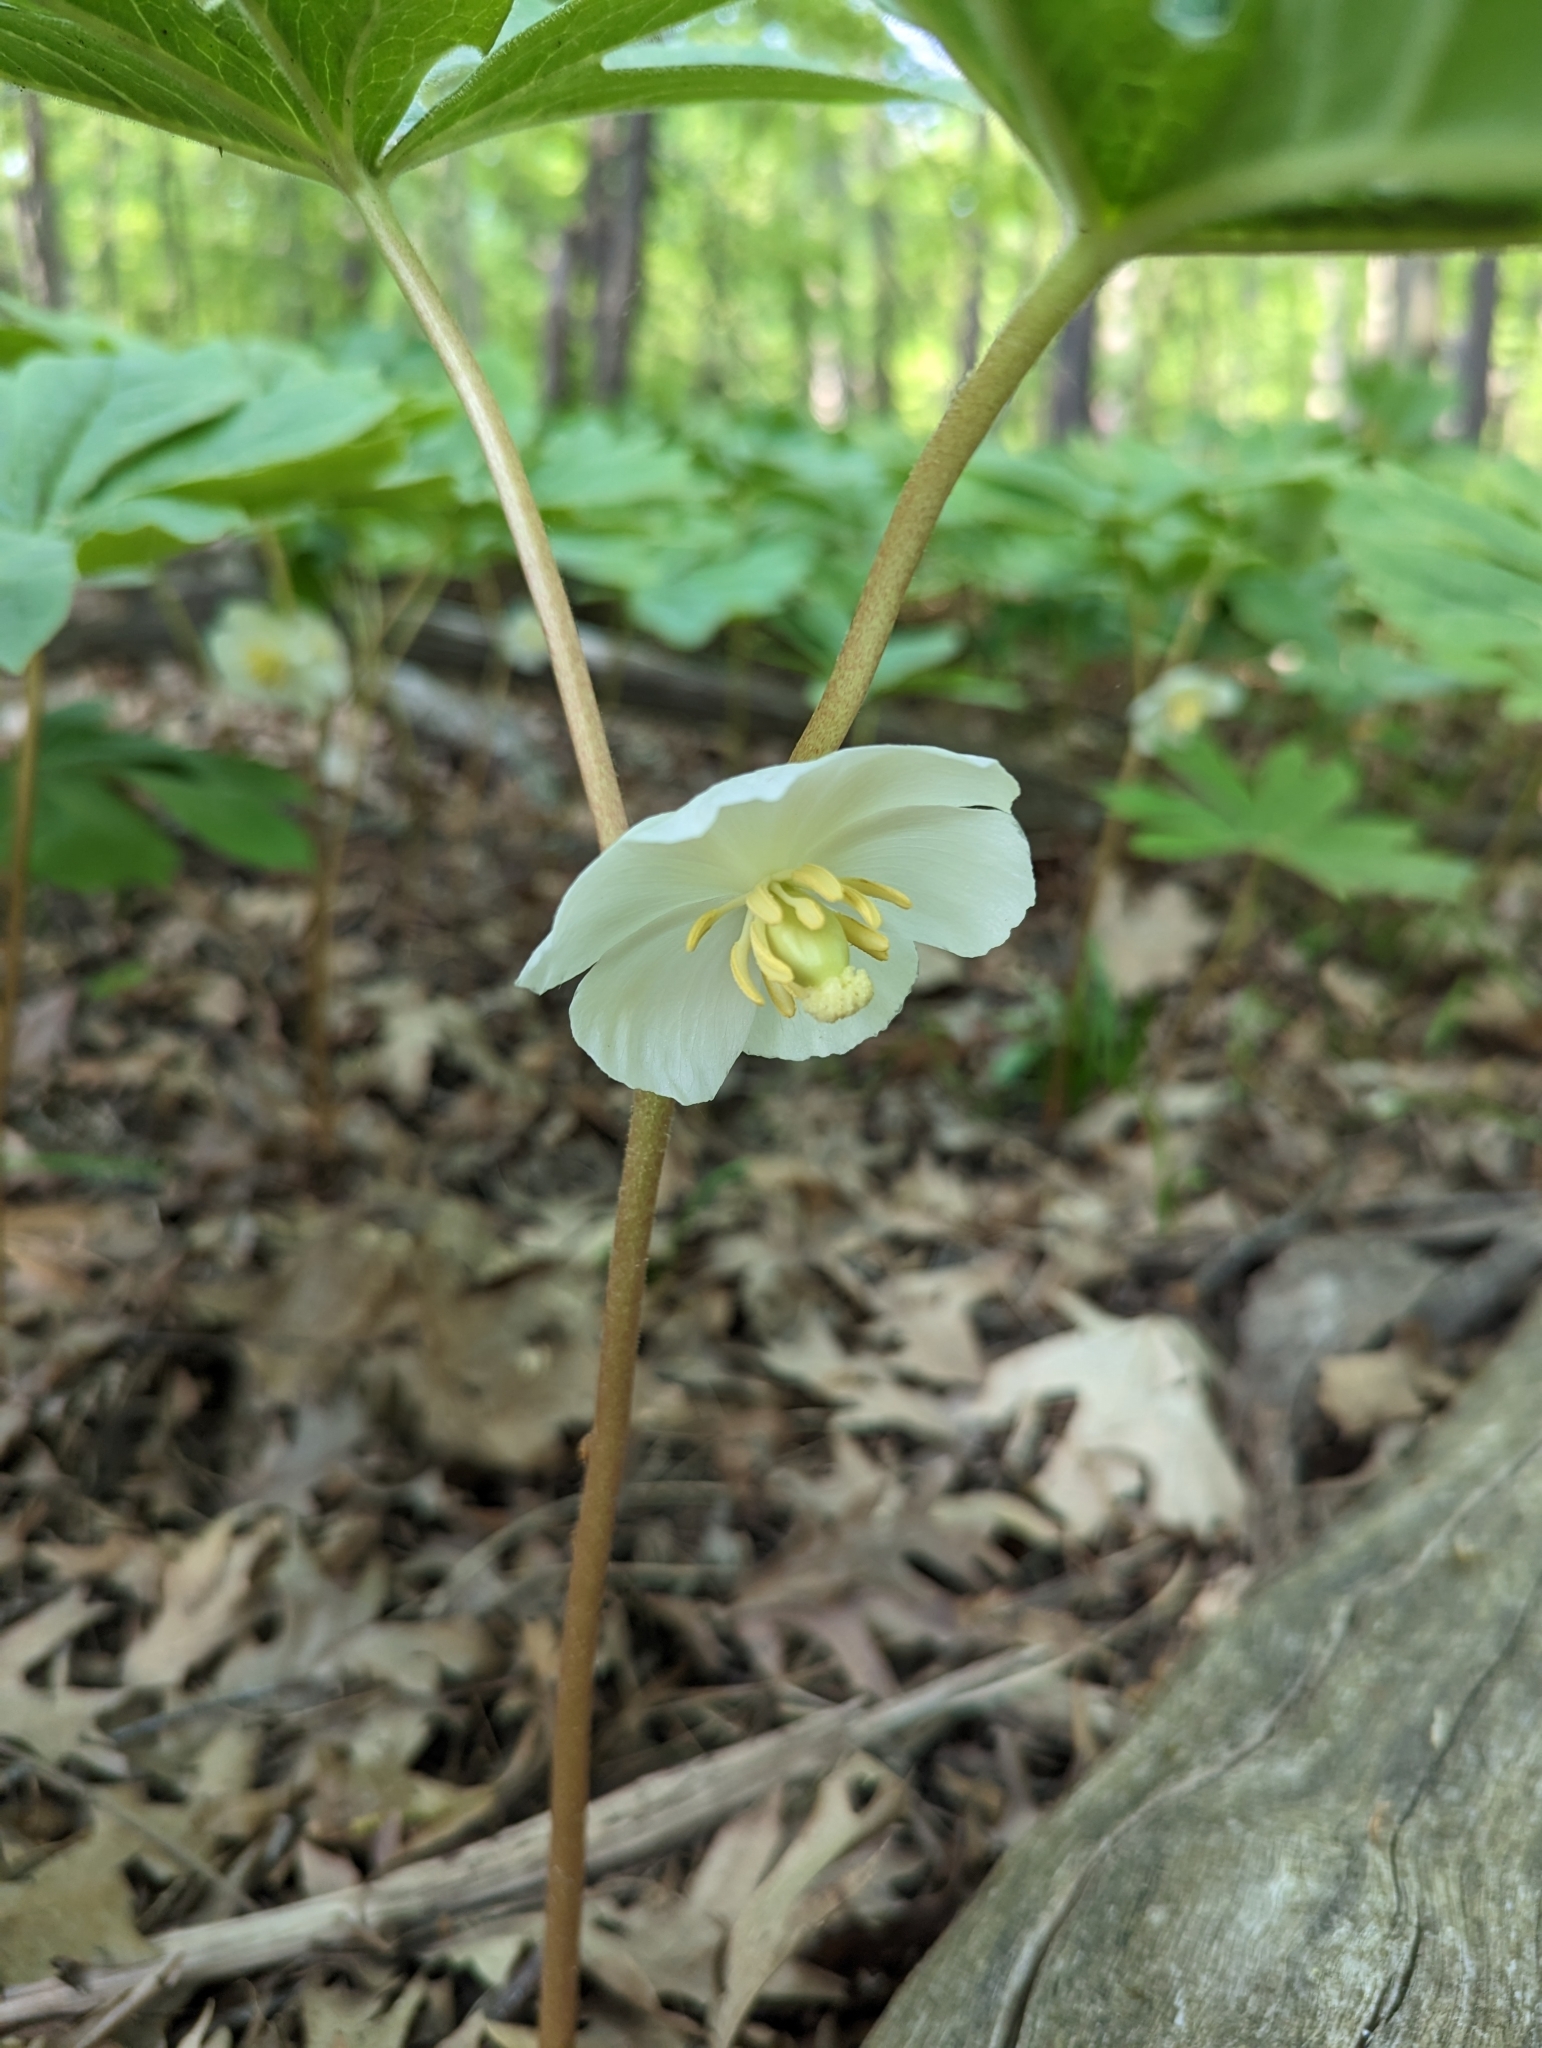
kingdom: Plantae
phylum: Tracheophyta
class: Magnoliopsida
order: Ranunculales
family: Berberidaceae
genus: Podophyllum
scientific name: Podophyllum peltatum
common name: Wild mandrake
